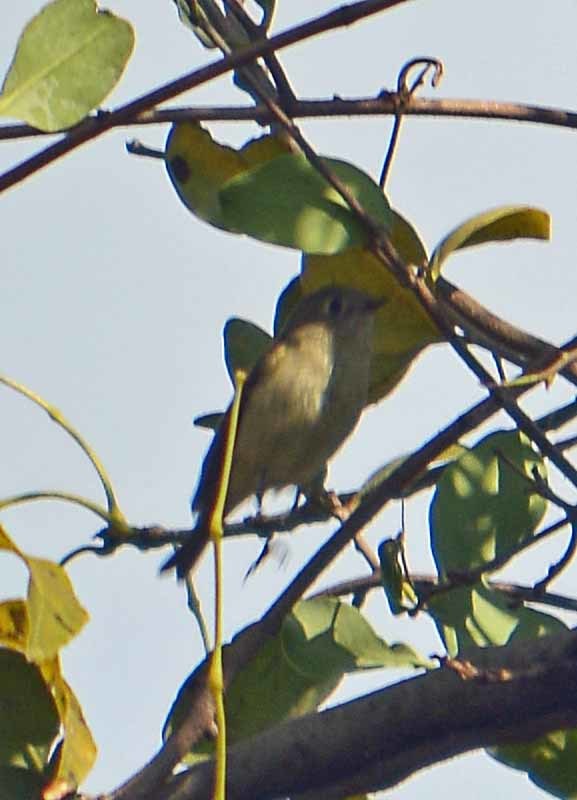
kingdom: Animalia
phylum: Chordata
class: Aves
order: Passeriformes
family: Regulidae
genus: Regulus
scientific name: Regulus calendula
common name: Ruby-crowned kinglet
